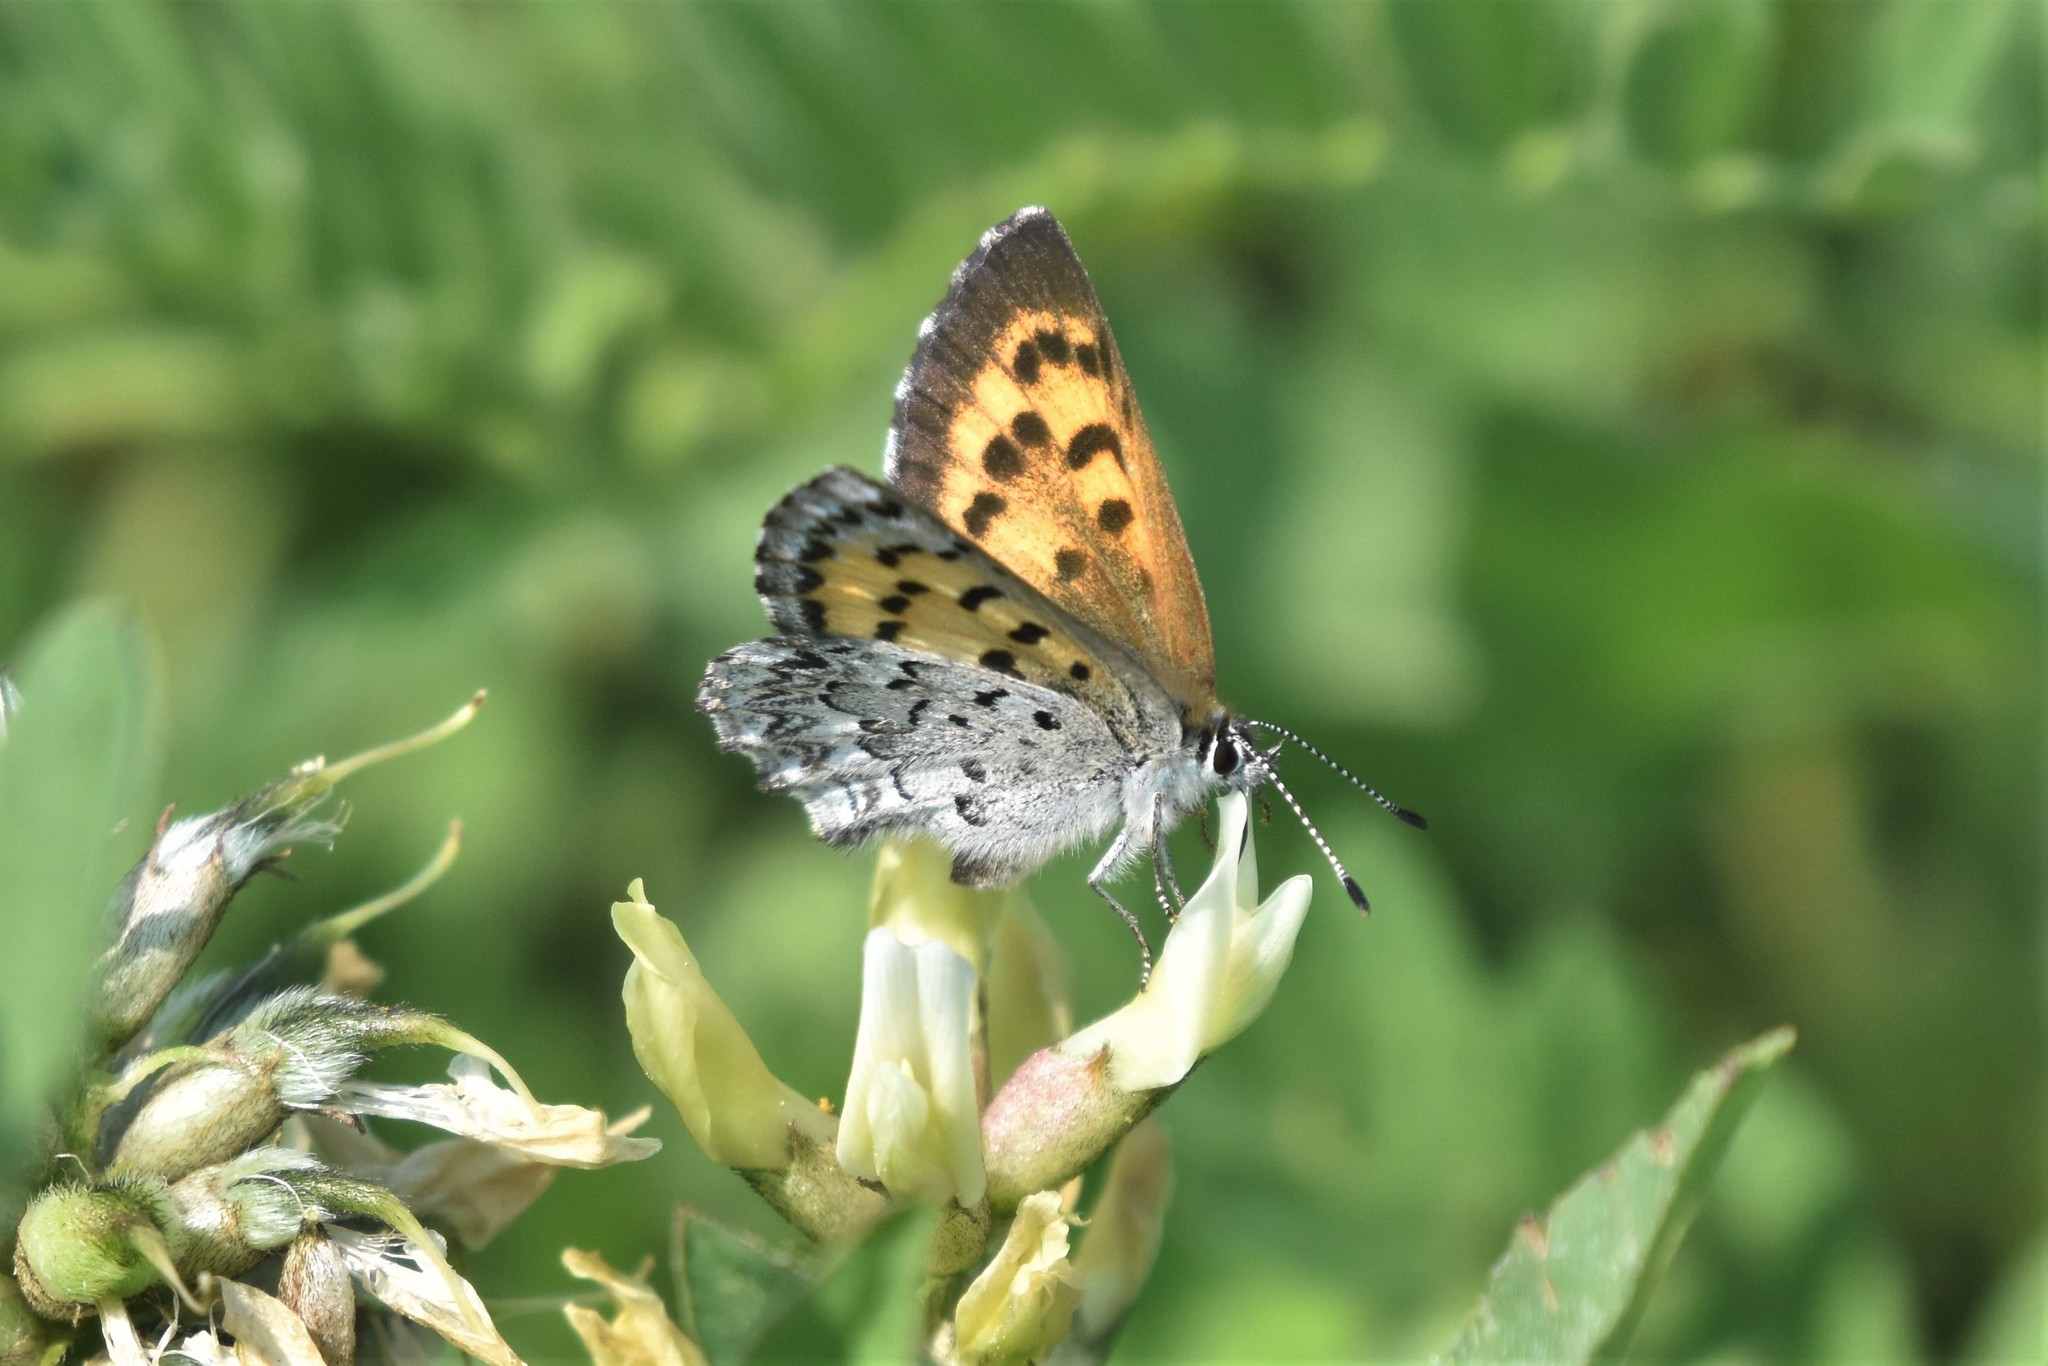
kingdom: Animalia
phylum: Arthropoda
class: Insecta
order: Lepidoptera
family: Lycaenidae
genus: Tharsalea
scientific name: Tharsalea mariposa
